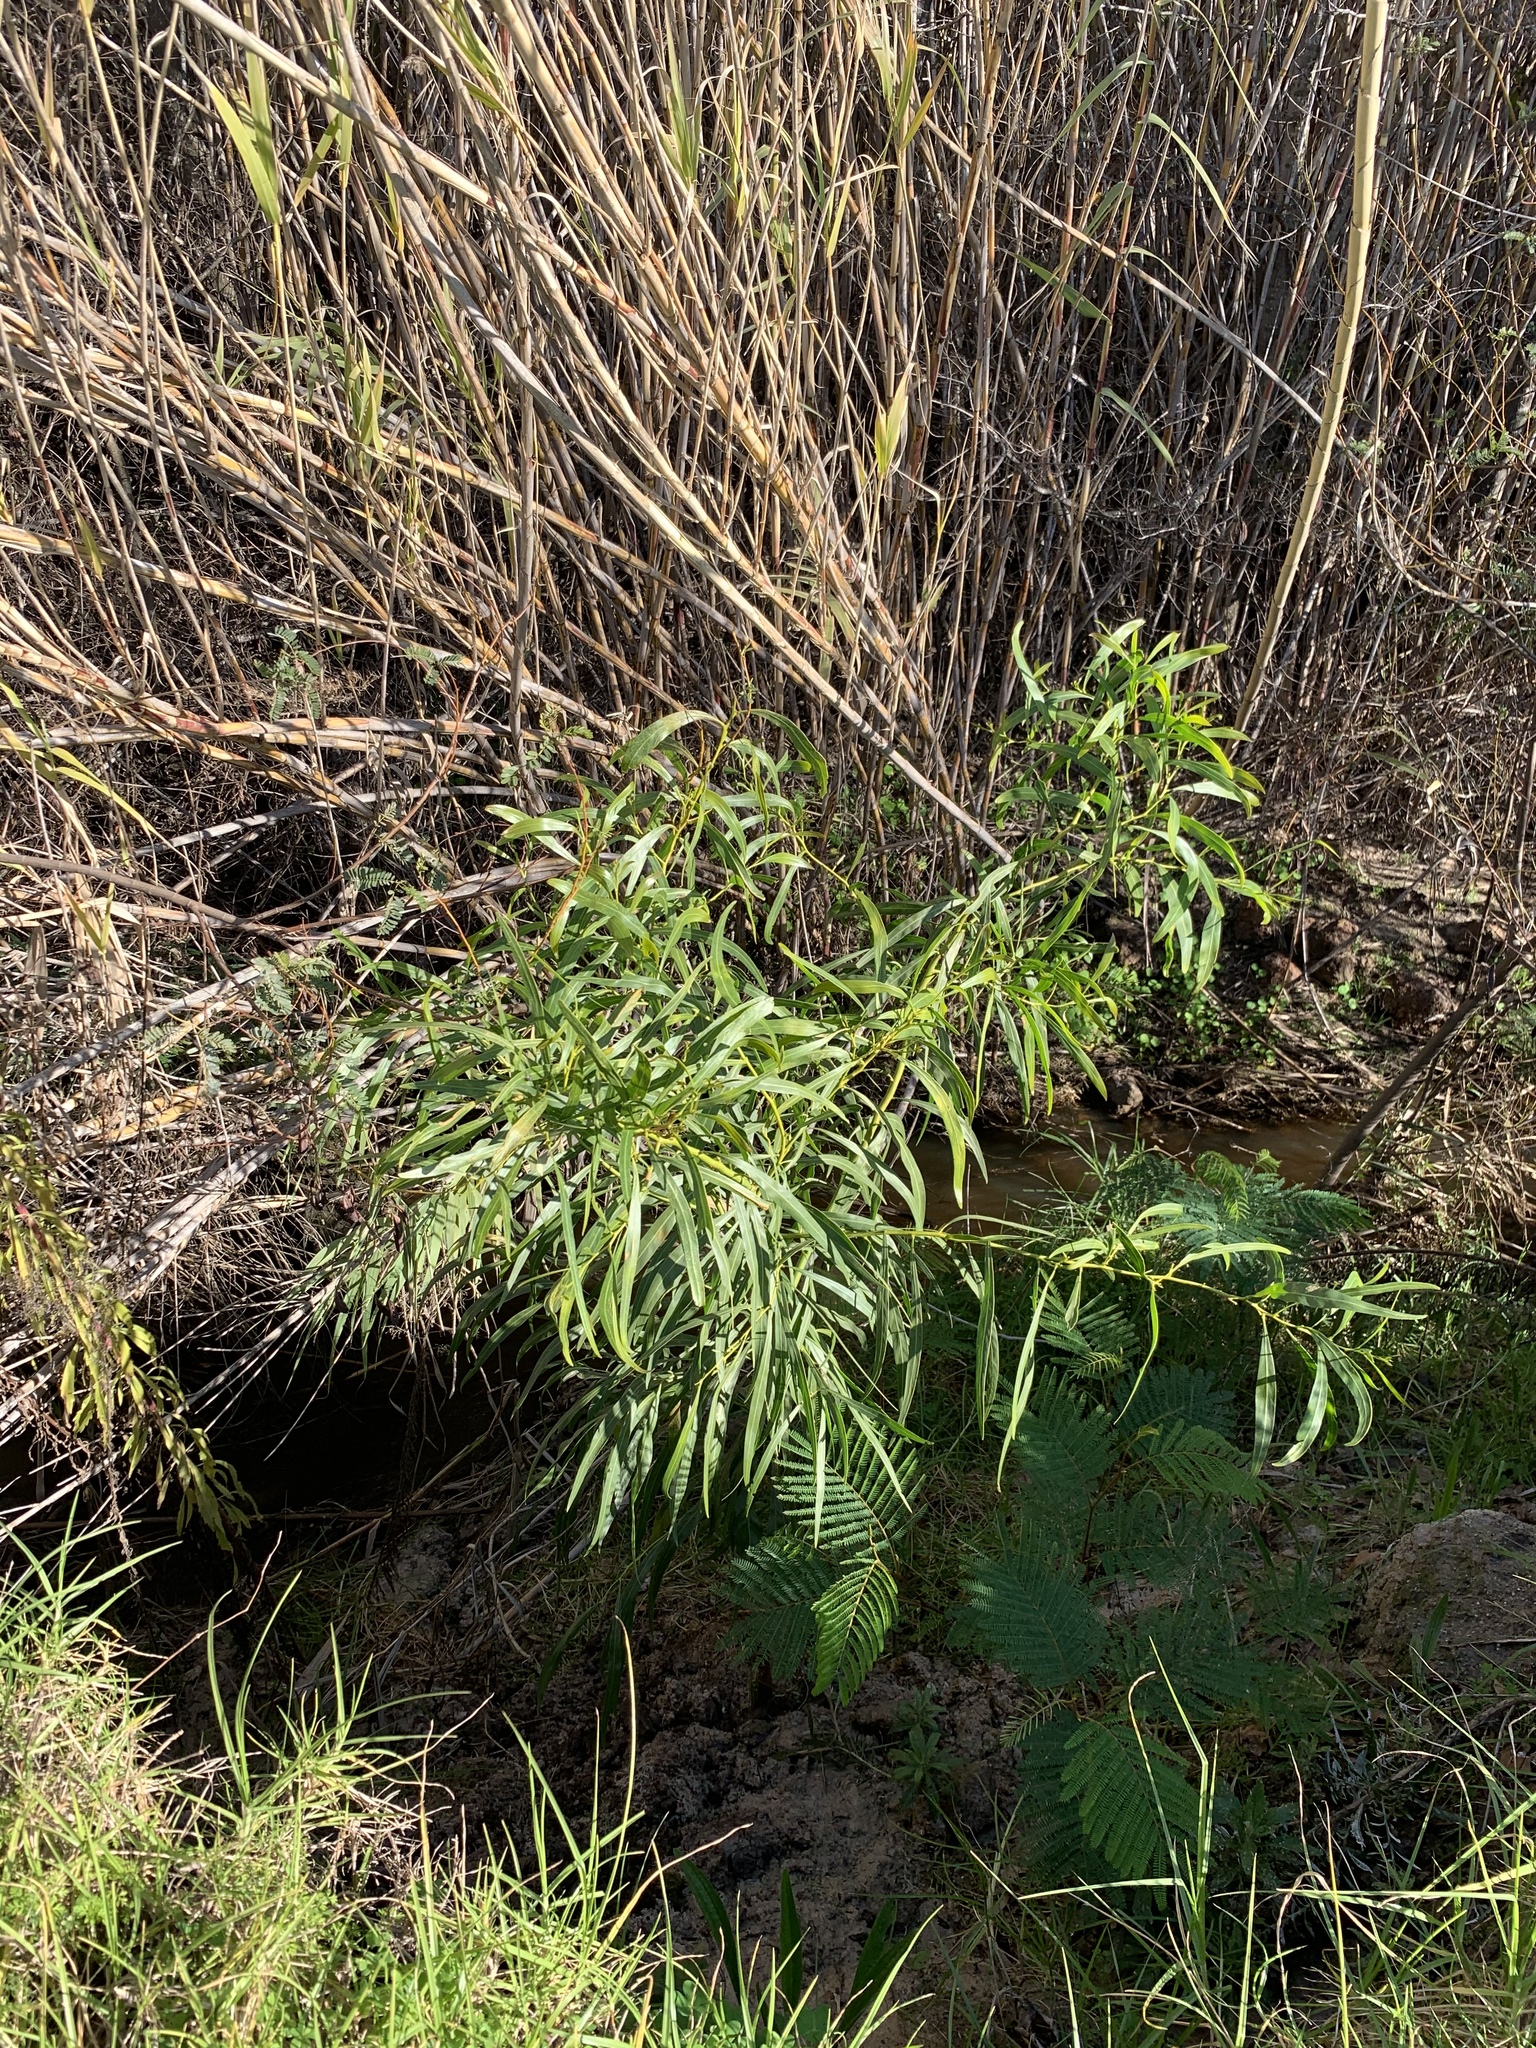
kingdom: Plantae
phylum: Tracheophyta
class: Magnoliopsida
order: Fabales
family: Fabaceae
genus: Acacia
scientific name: Acacia saligna
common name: Orange wattle
